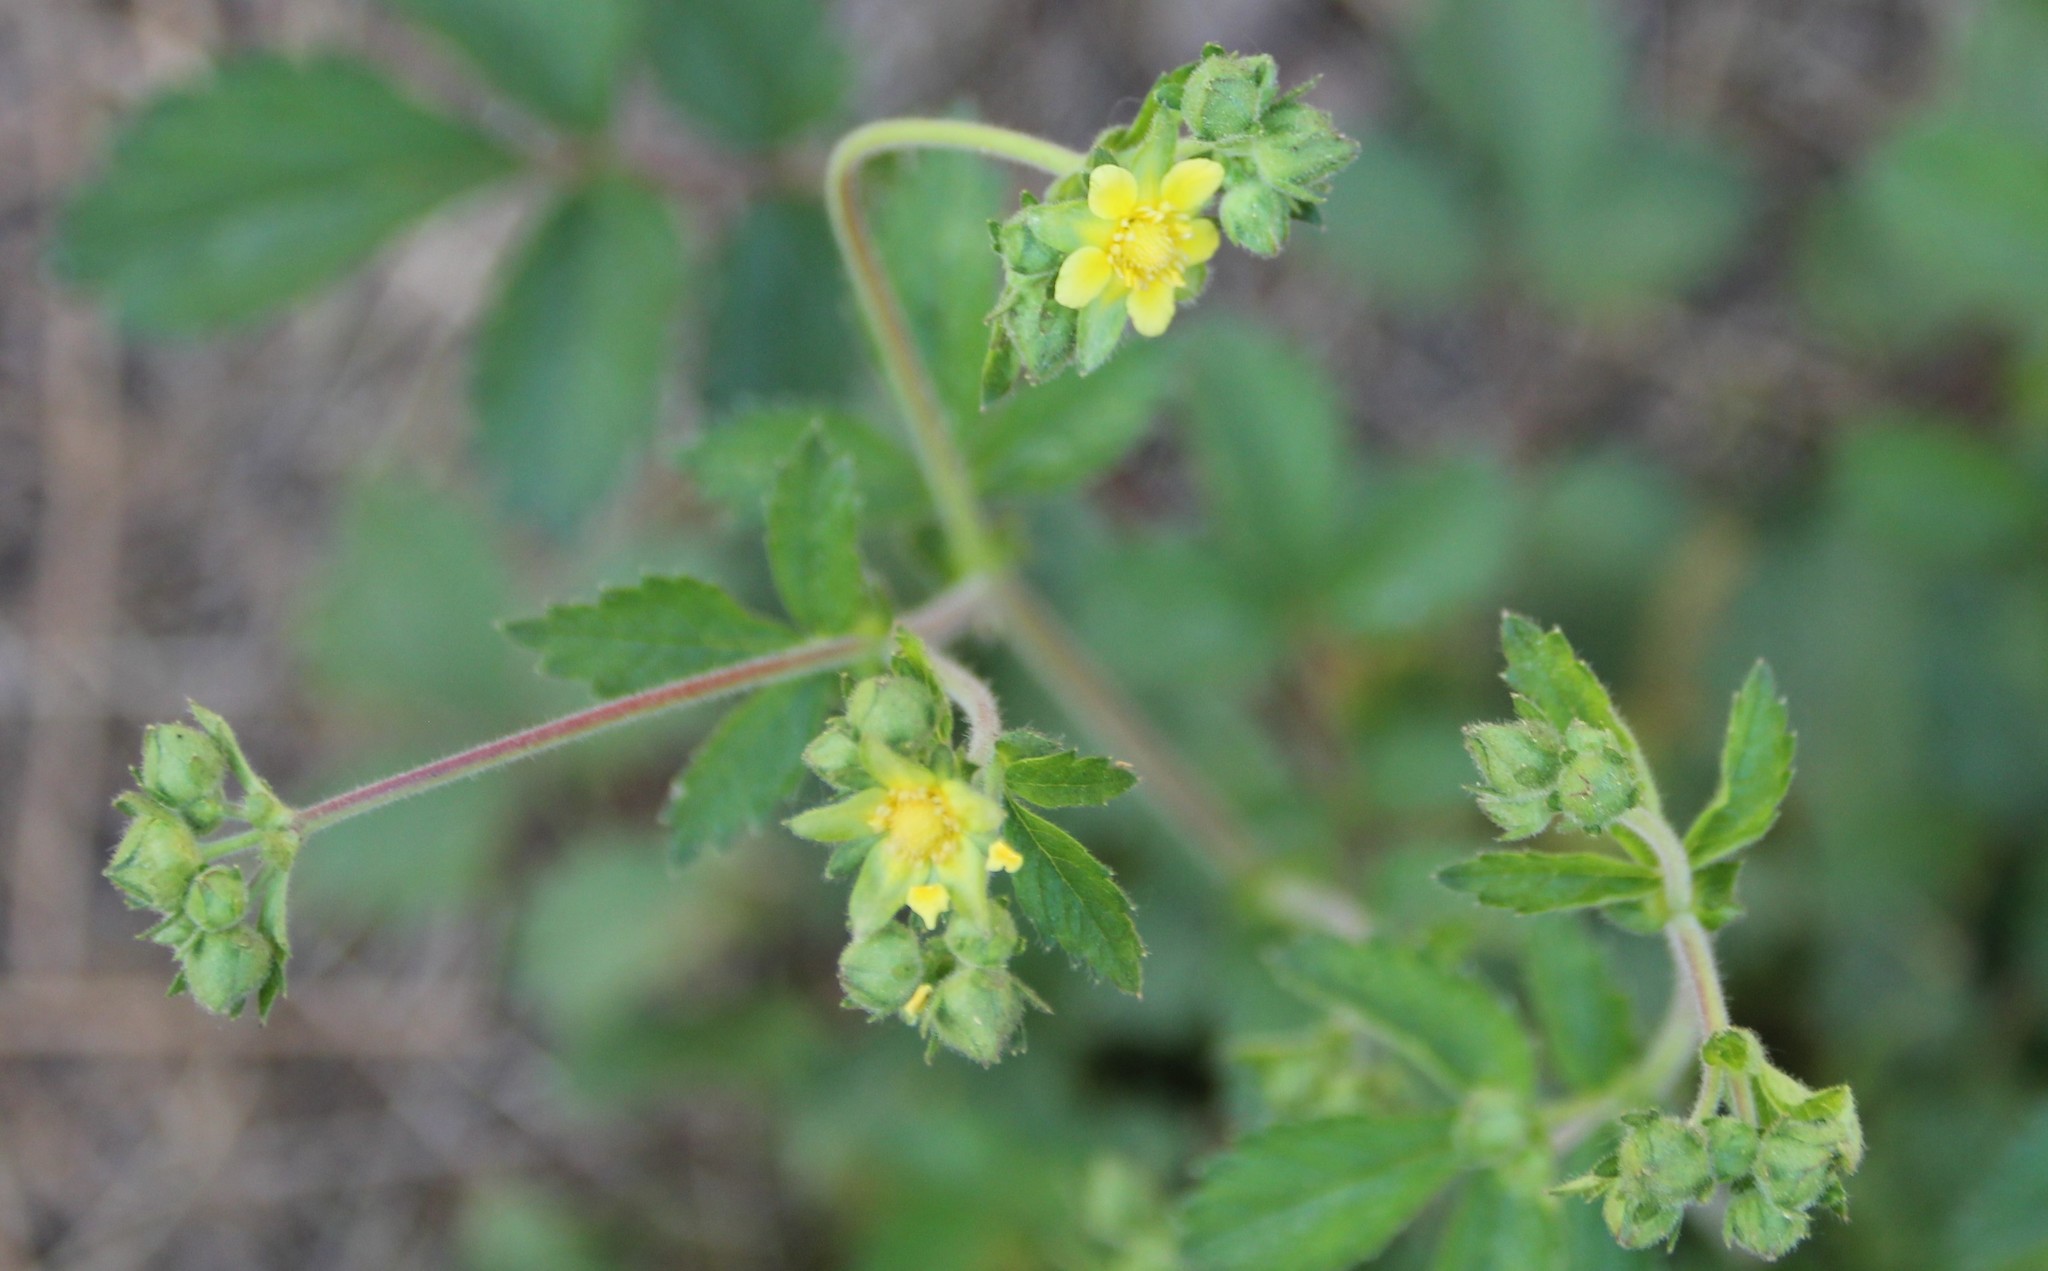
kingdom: Plantae
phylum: Tracheophyta
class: Magnoliopsida
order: Rosales
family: Rosaceae
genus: Drymocallis
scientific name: Drymocallis glandulosa
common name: Sticky cinquefoil
